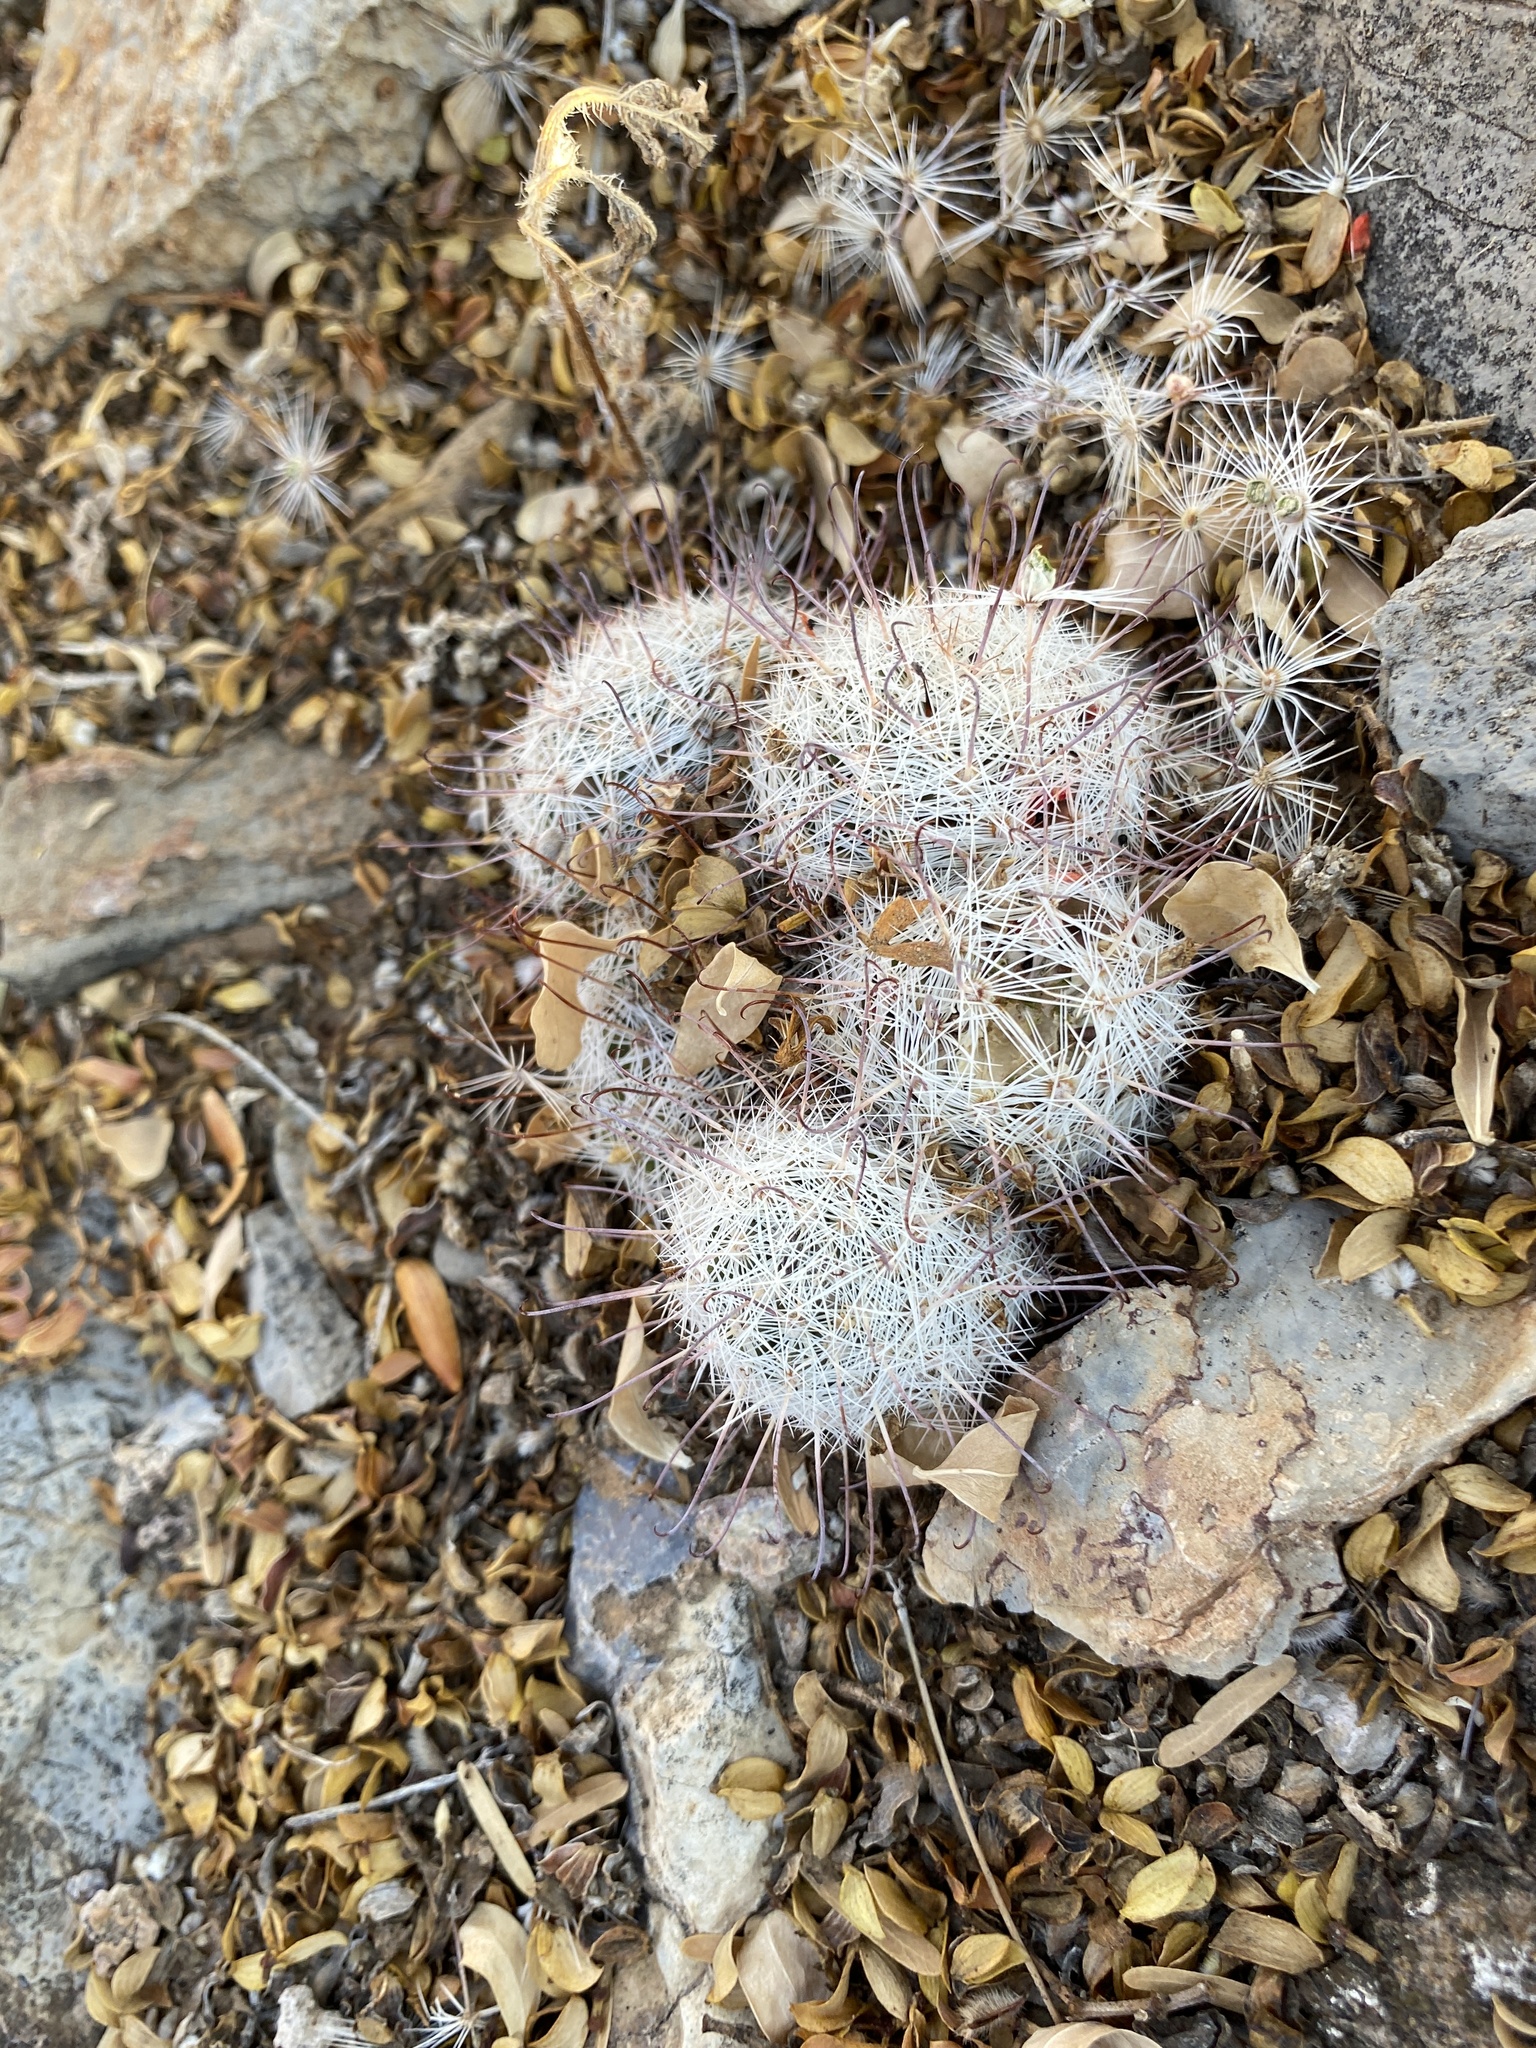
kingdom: Plantae
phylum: Tracheophyta
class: Magnoliopsida
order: Caryophyllales
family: Cactaceae
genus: Cochemiea
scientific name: Cochemiea grahamii
